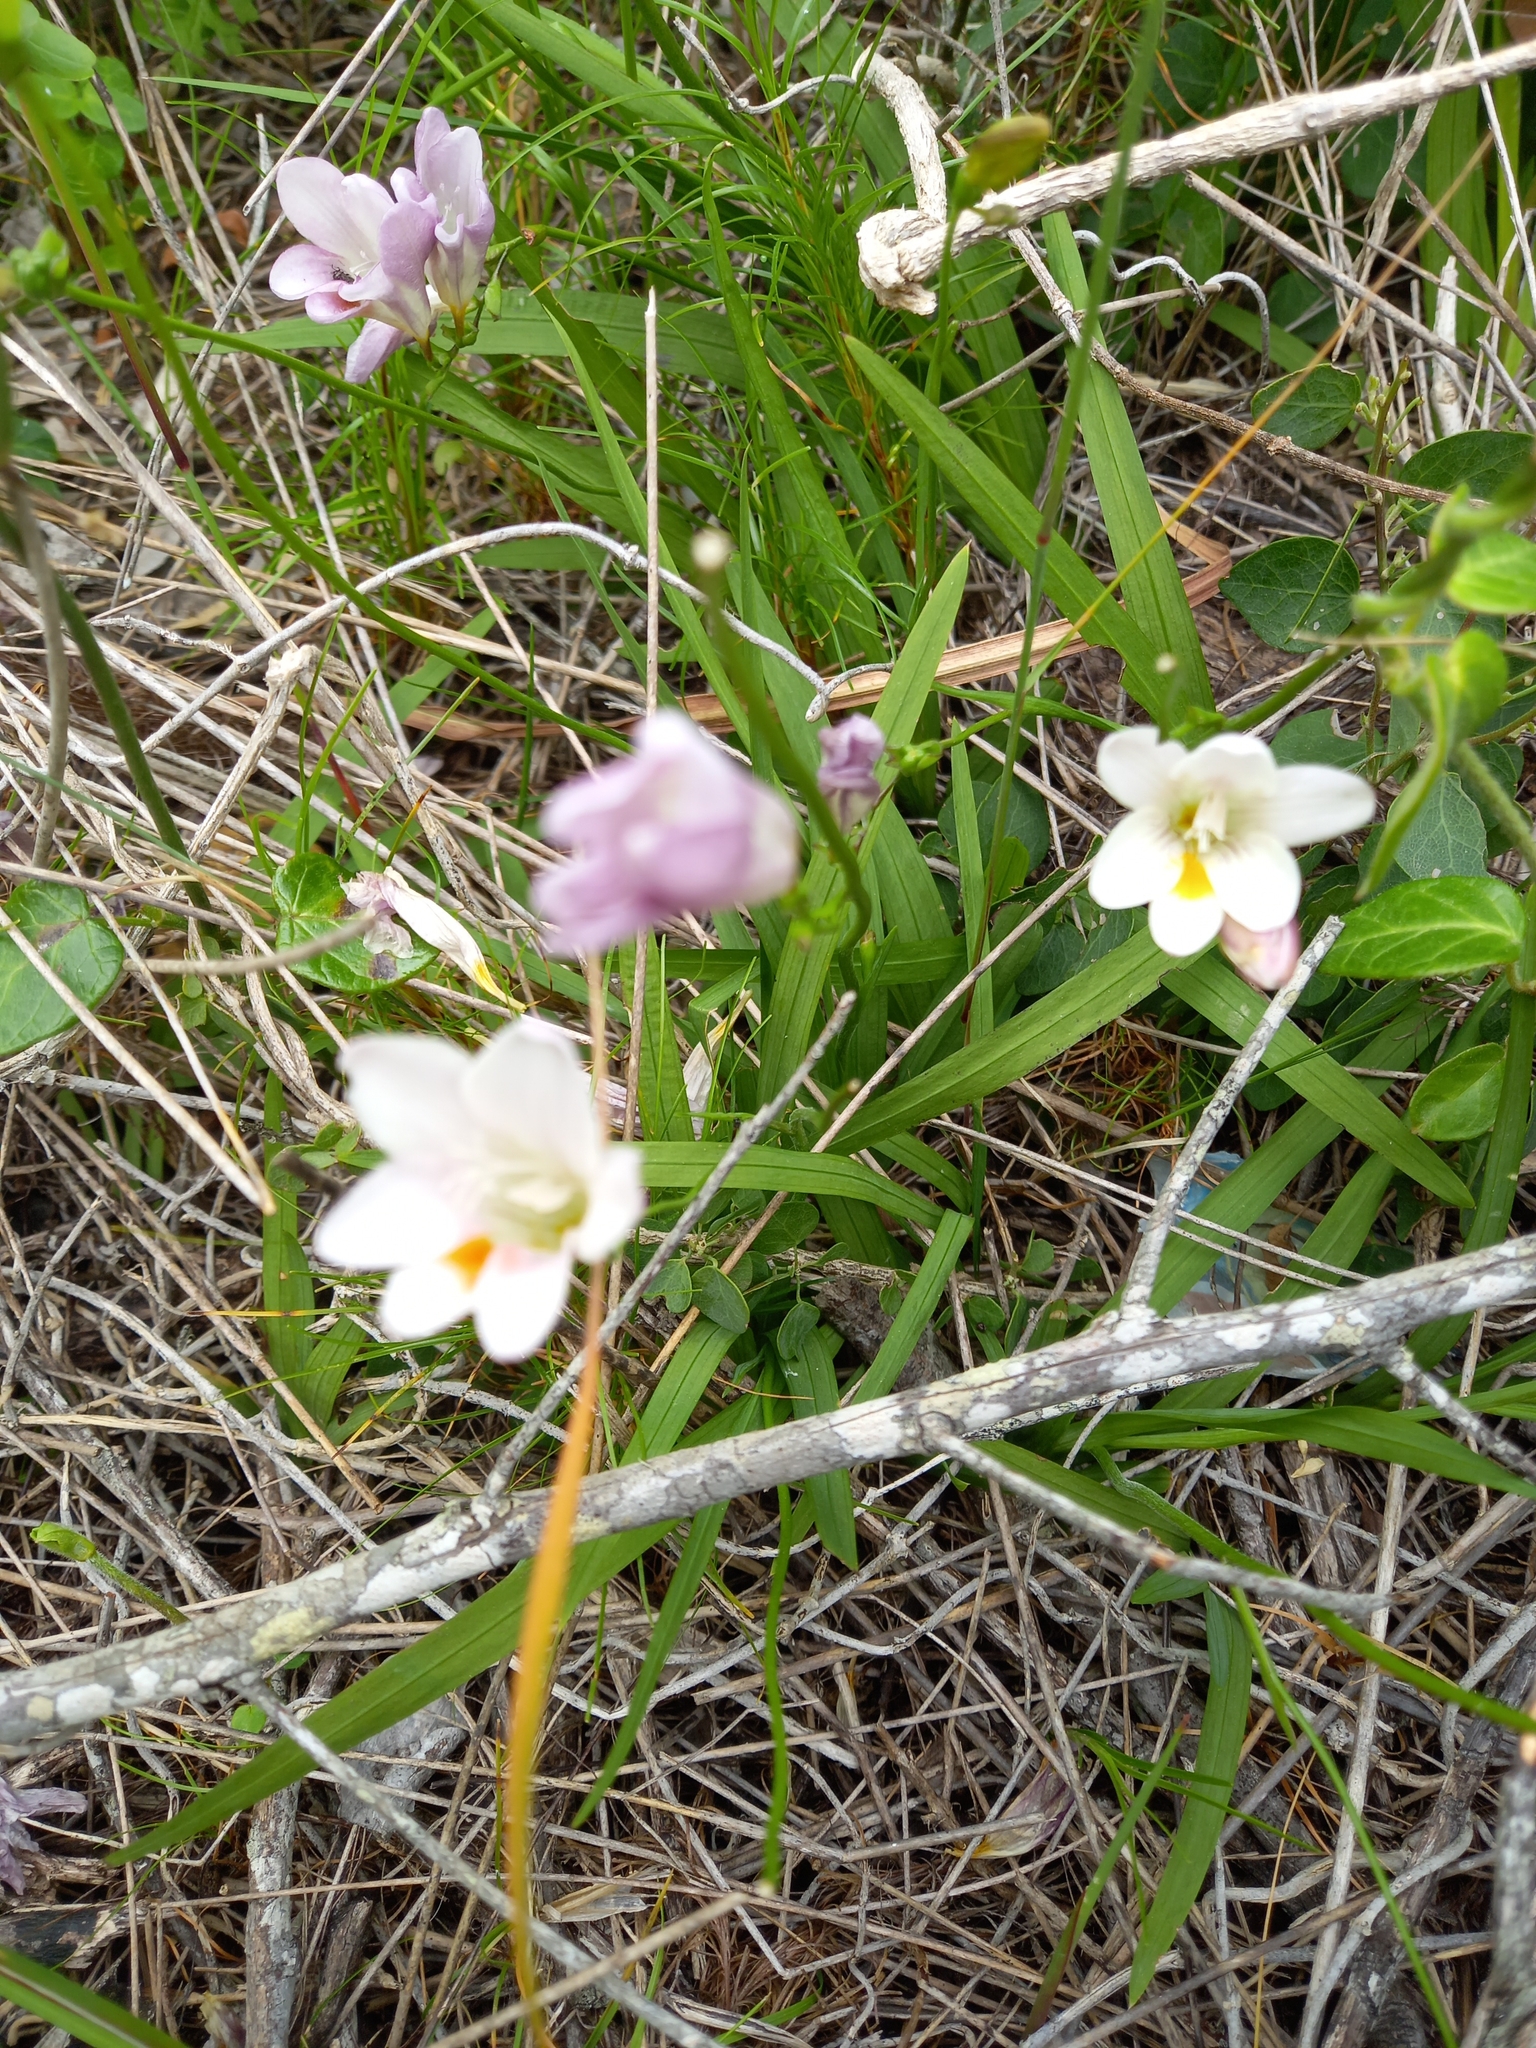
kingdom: Plantae
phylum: Tracheophyta
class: Liliopsida
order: Asparagales
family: Iridaceae
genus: Freesia
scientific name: Freesia leichtlinii
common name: Freesia
